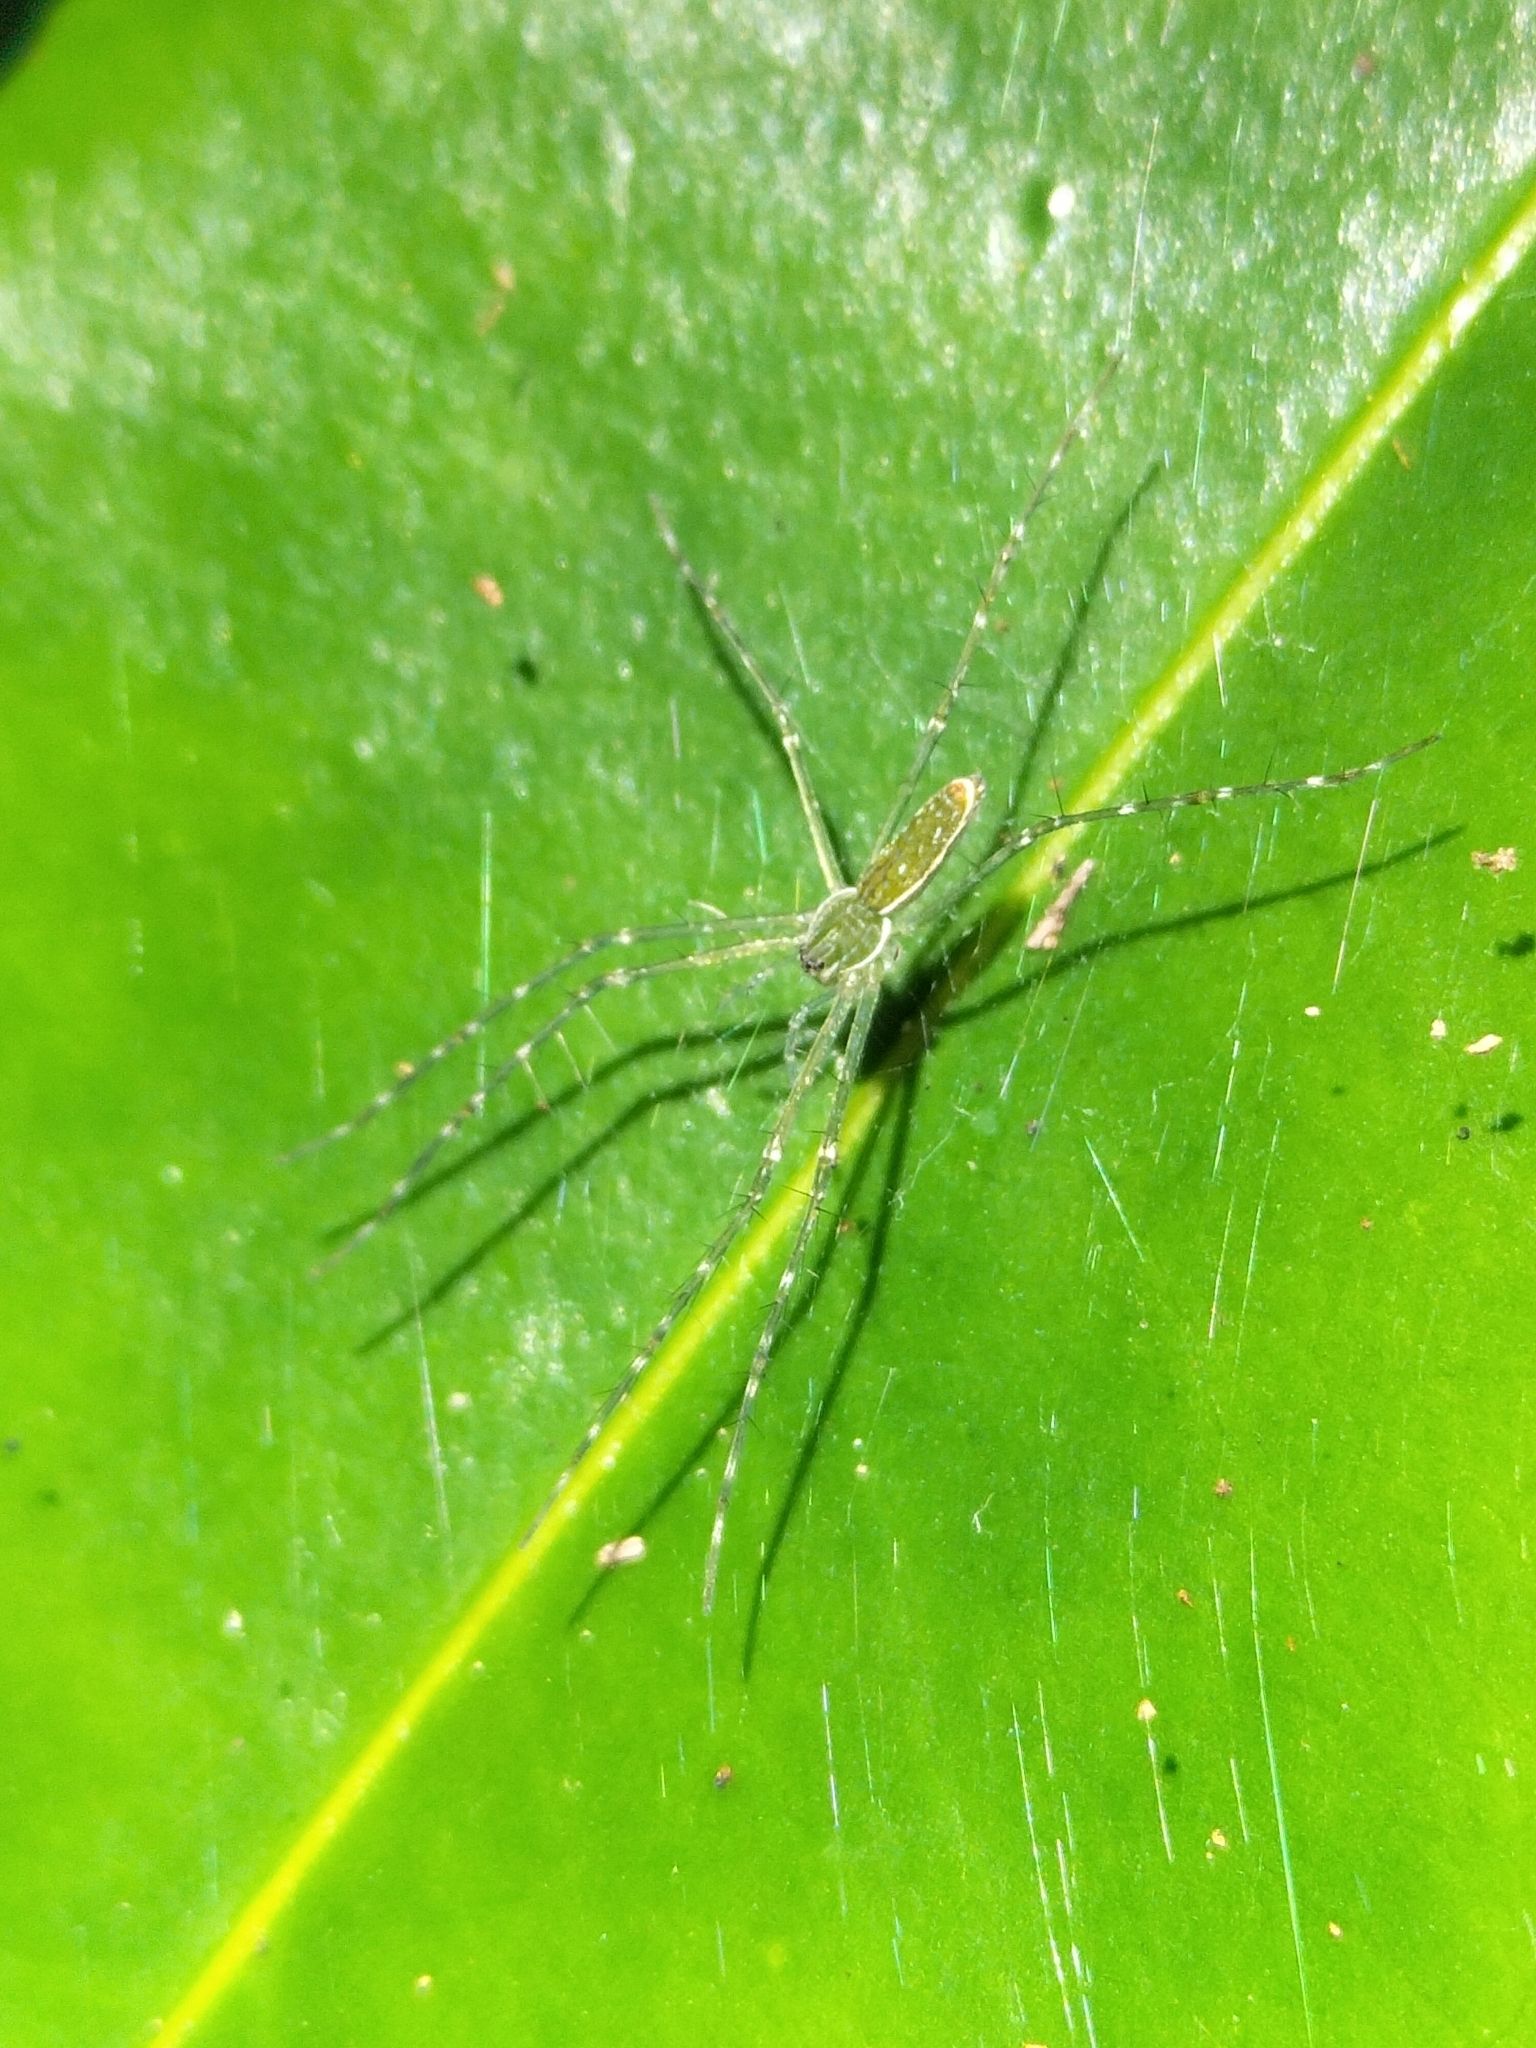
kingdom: Animalia
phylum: Arthropoda
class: Arachnida
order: Araneae
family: Pisauridae
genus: Hygropoda
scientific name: Hygropoda lineata
